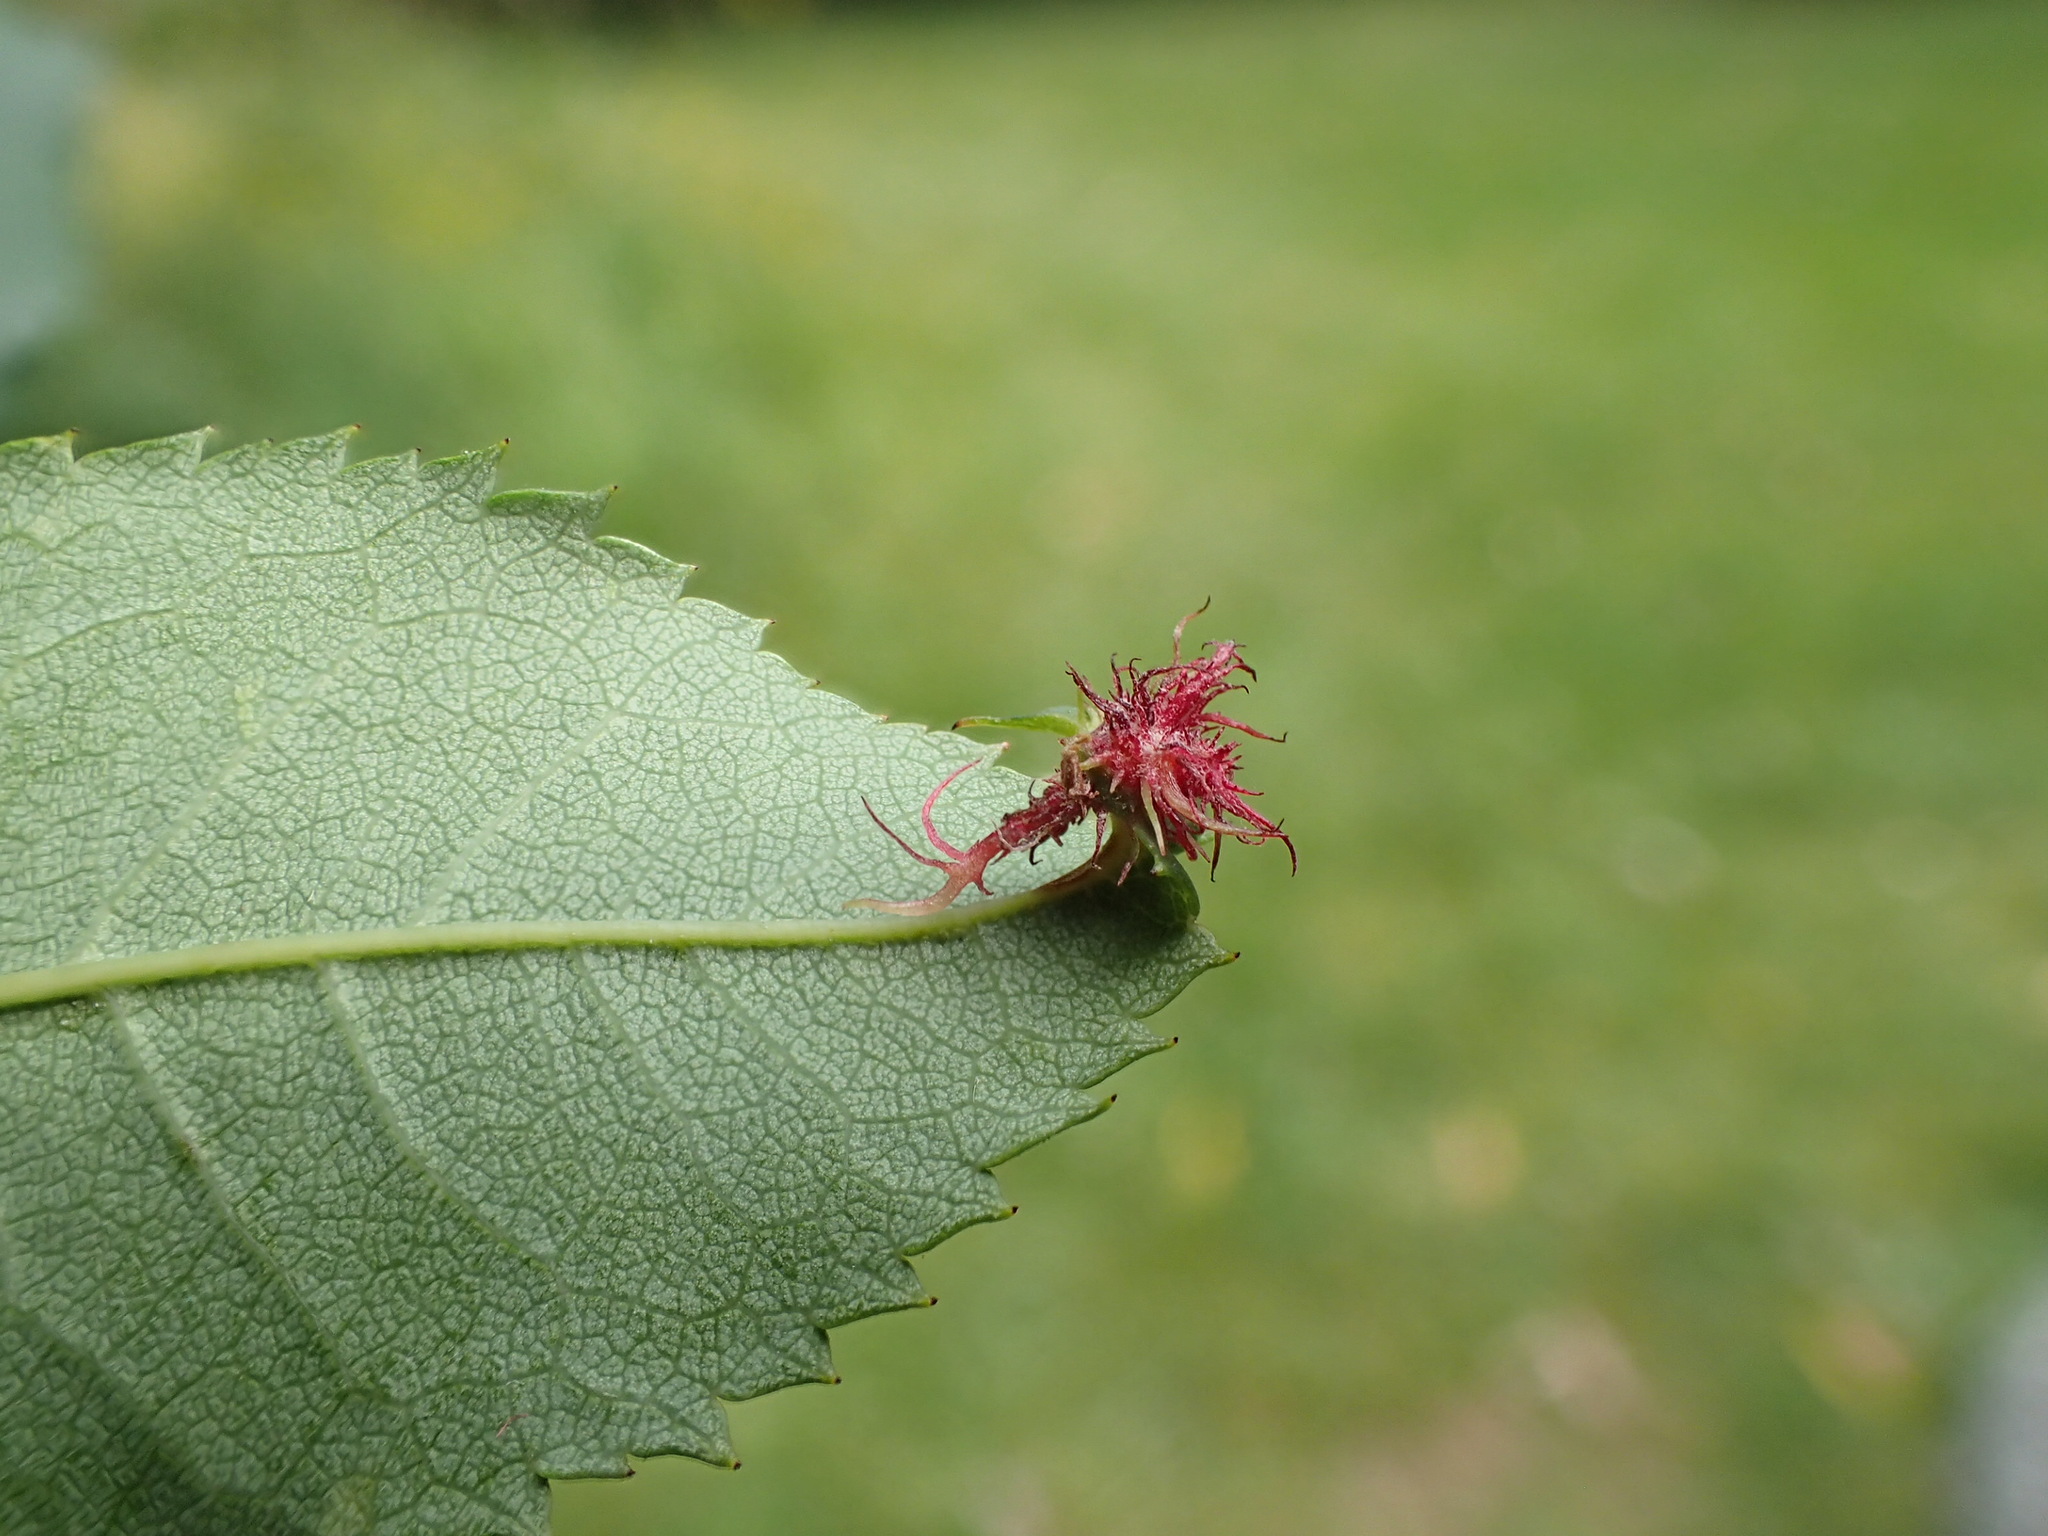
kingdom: Animalia
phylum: Arthropoda
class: Insecta
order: Hymenoptera
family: Cynipidae
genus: Diplolepis
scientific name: Diplolepis rosae
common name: Bedeguar gall
